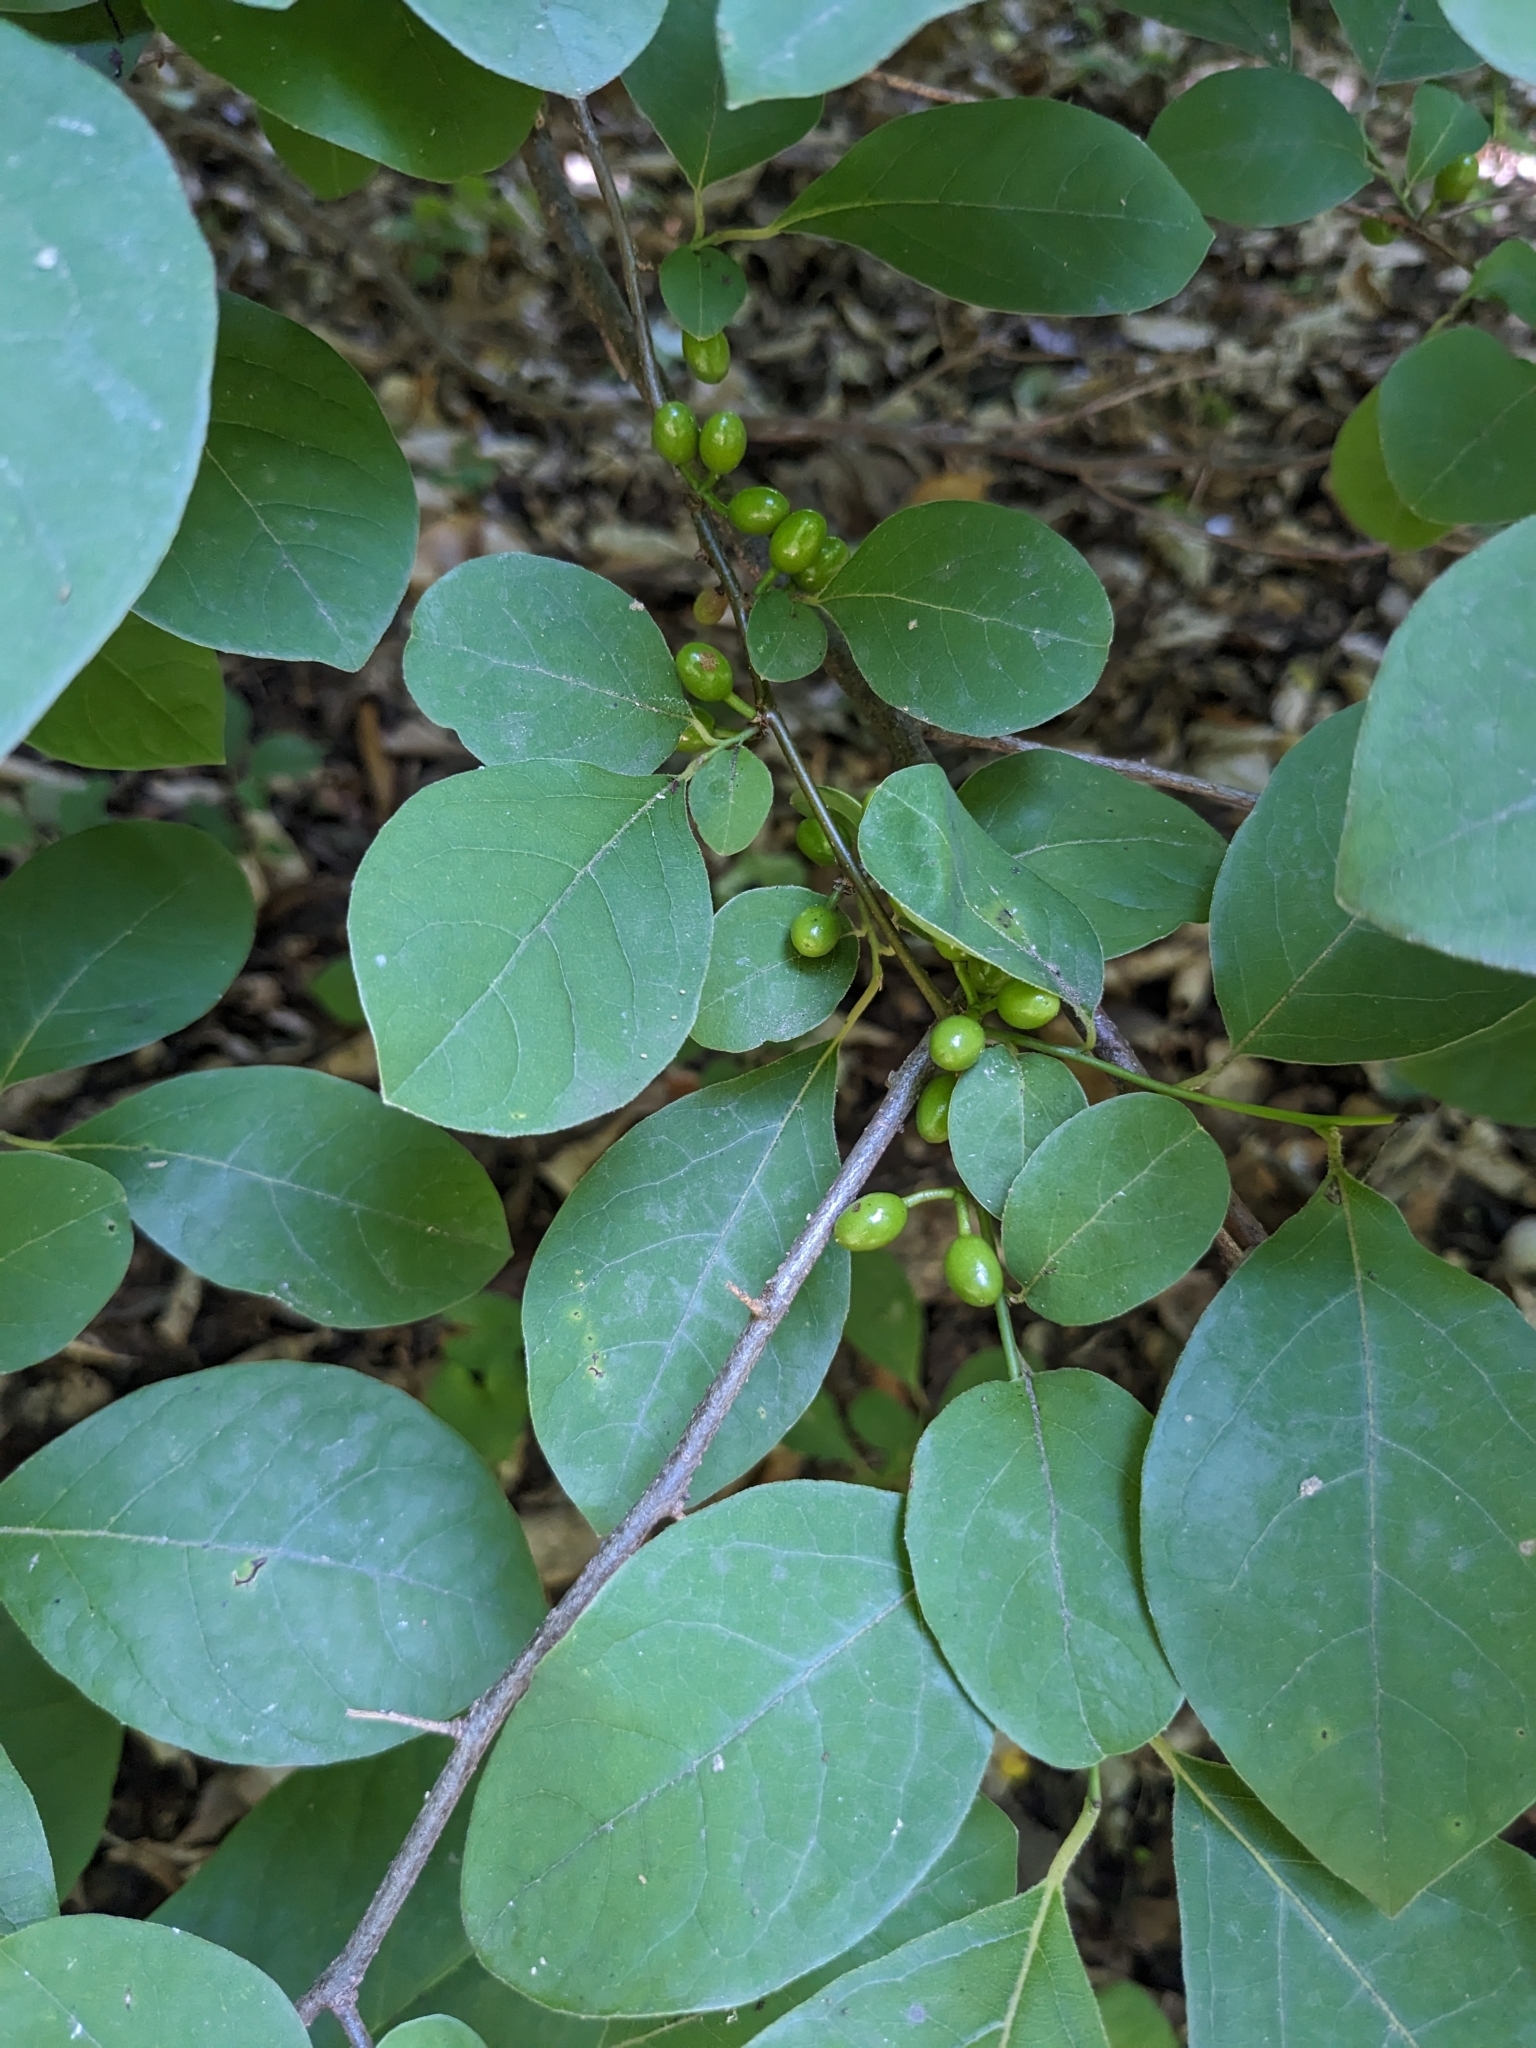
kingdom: Plantae
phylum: Tracheophyta
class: Magnoliopsida
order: Laurales
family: Lauraceae
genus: Lindera
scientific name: Lindera benzoin
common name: Spicebush
